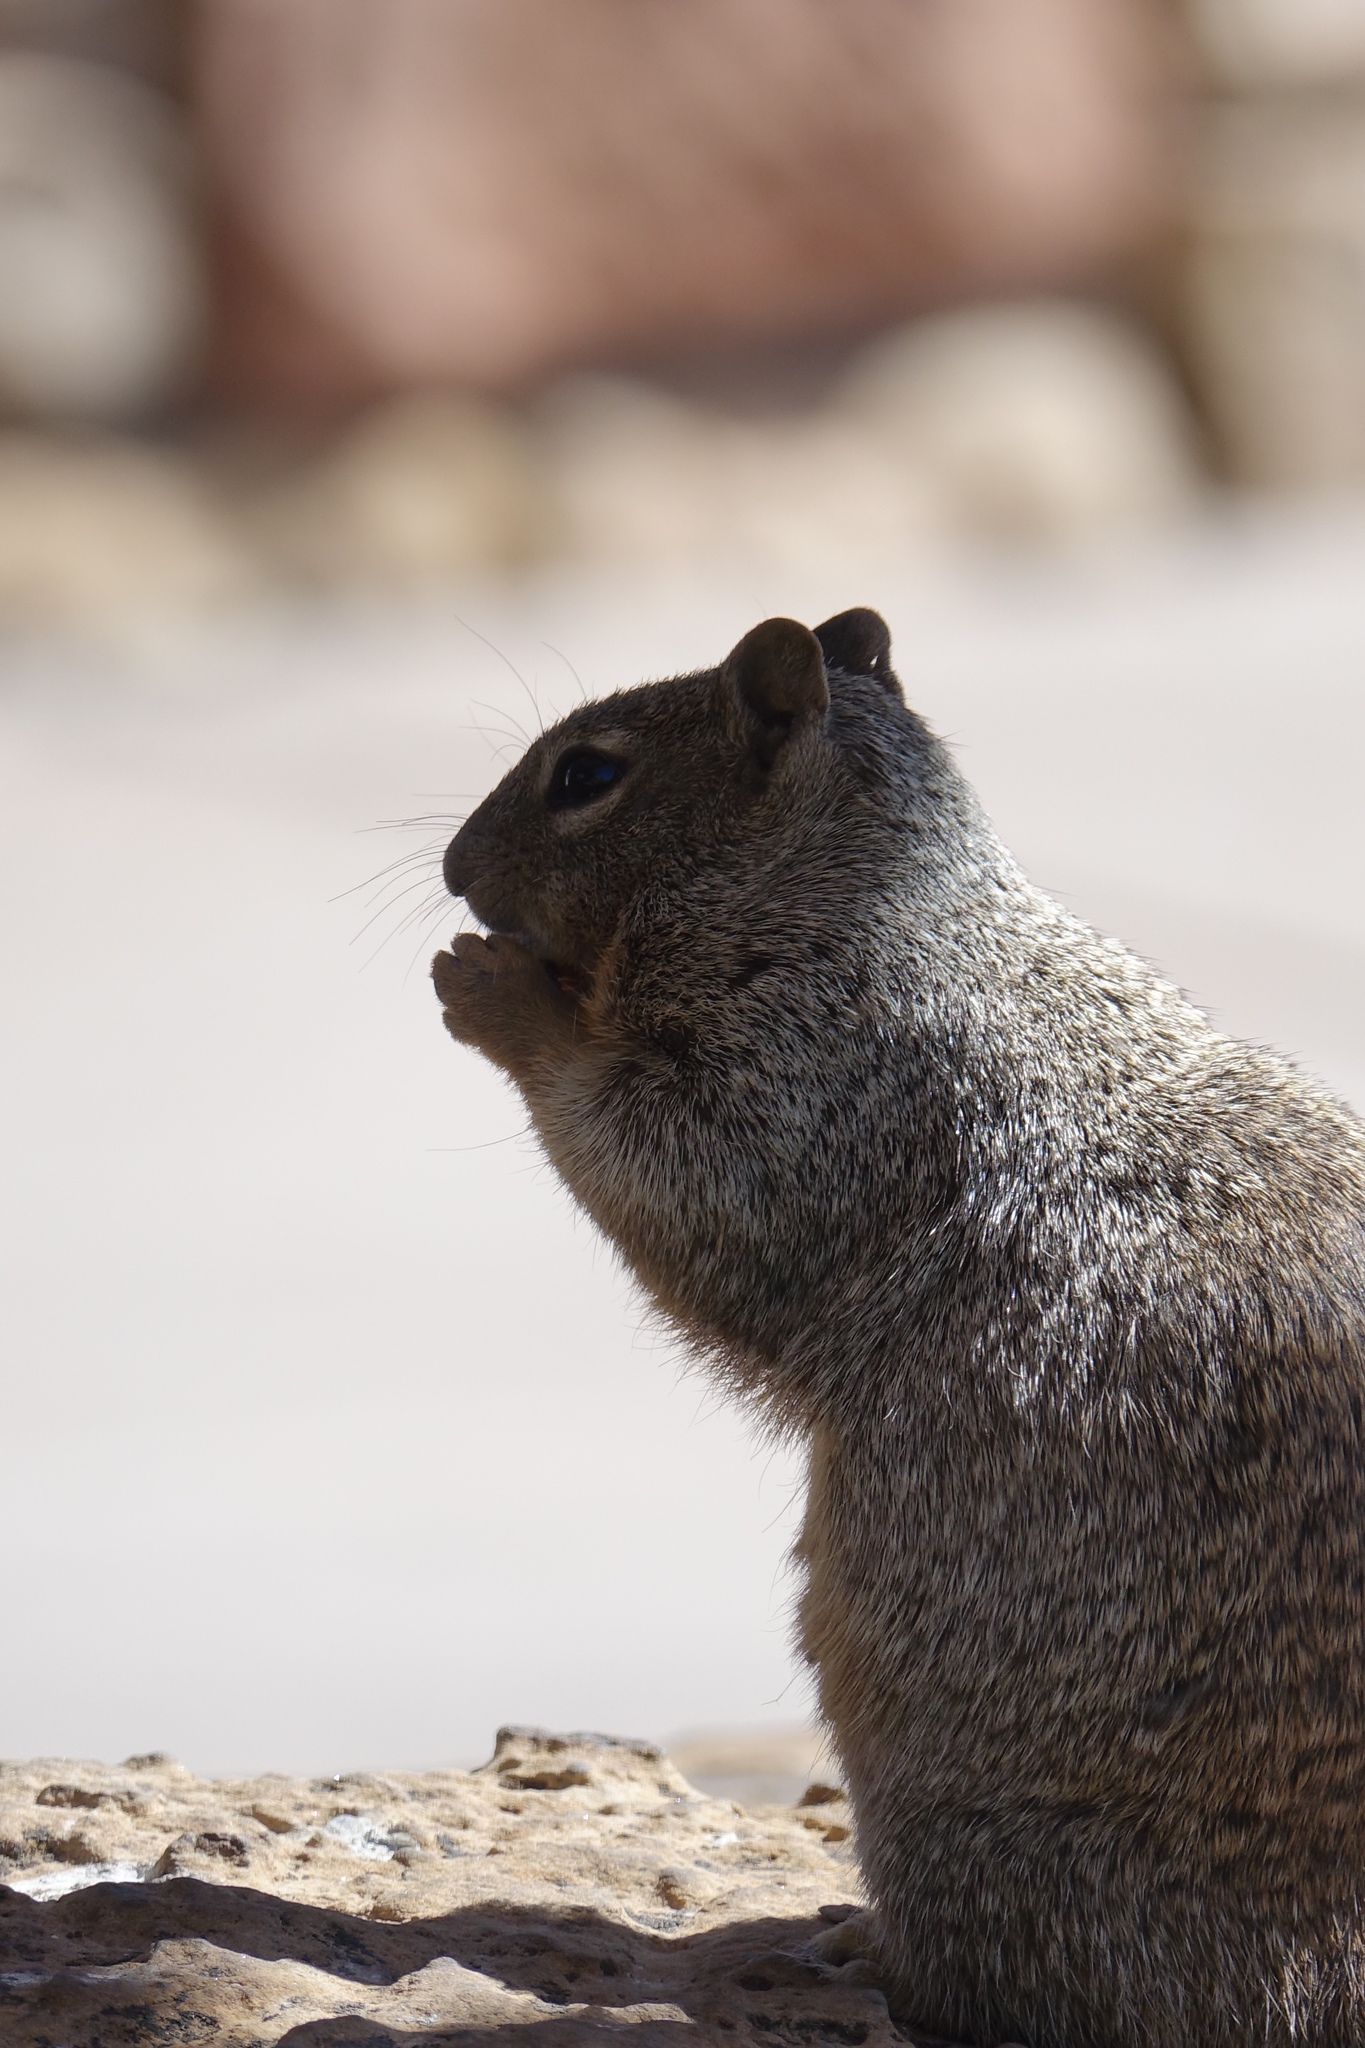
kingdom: Animalia
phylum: Chordata
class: Mammalia
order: Rodentia
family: Sciuridae
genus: Otospermophilus
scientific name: Otospermophilus variegatus
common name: Rock squirrel
